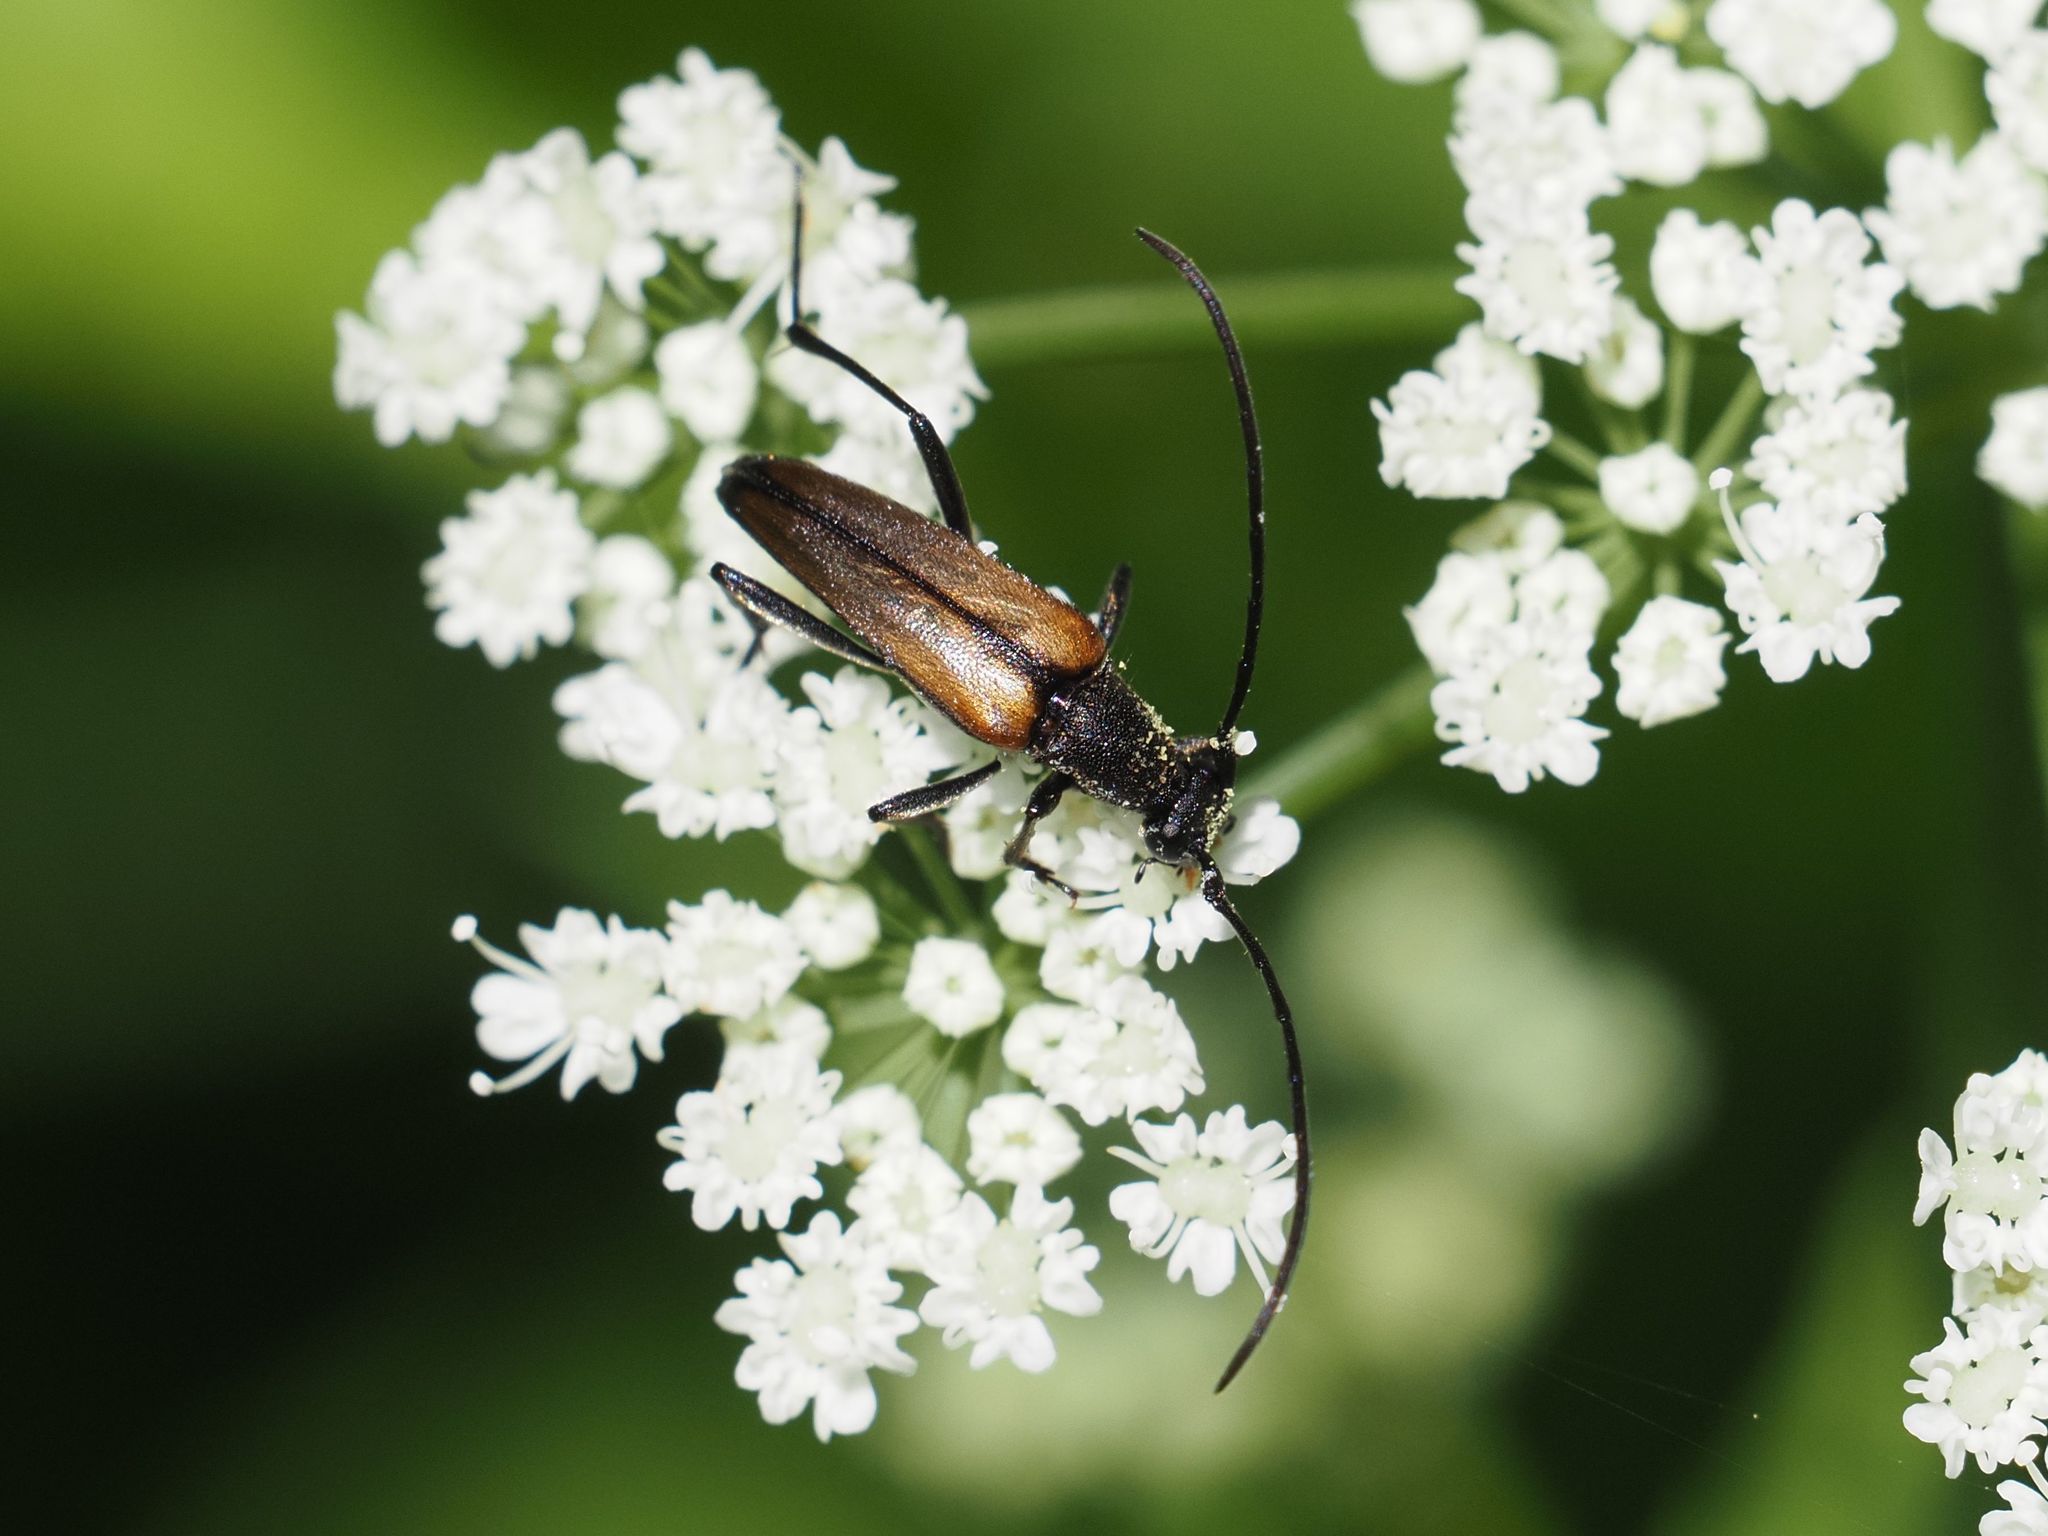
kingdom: Animalia
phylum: Arthropoda
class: Insecta
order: Coleoptera
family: Cerambycidae
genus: Stenurella
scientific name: Stenurella melanura
